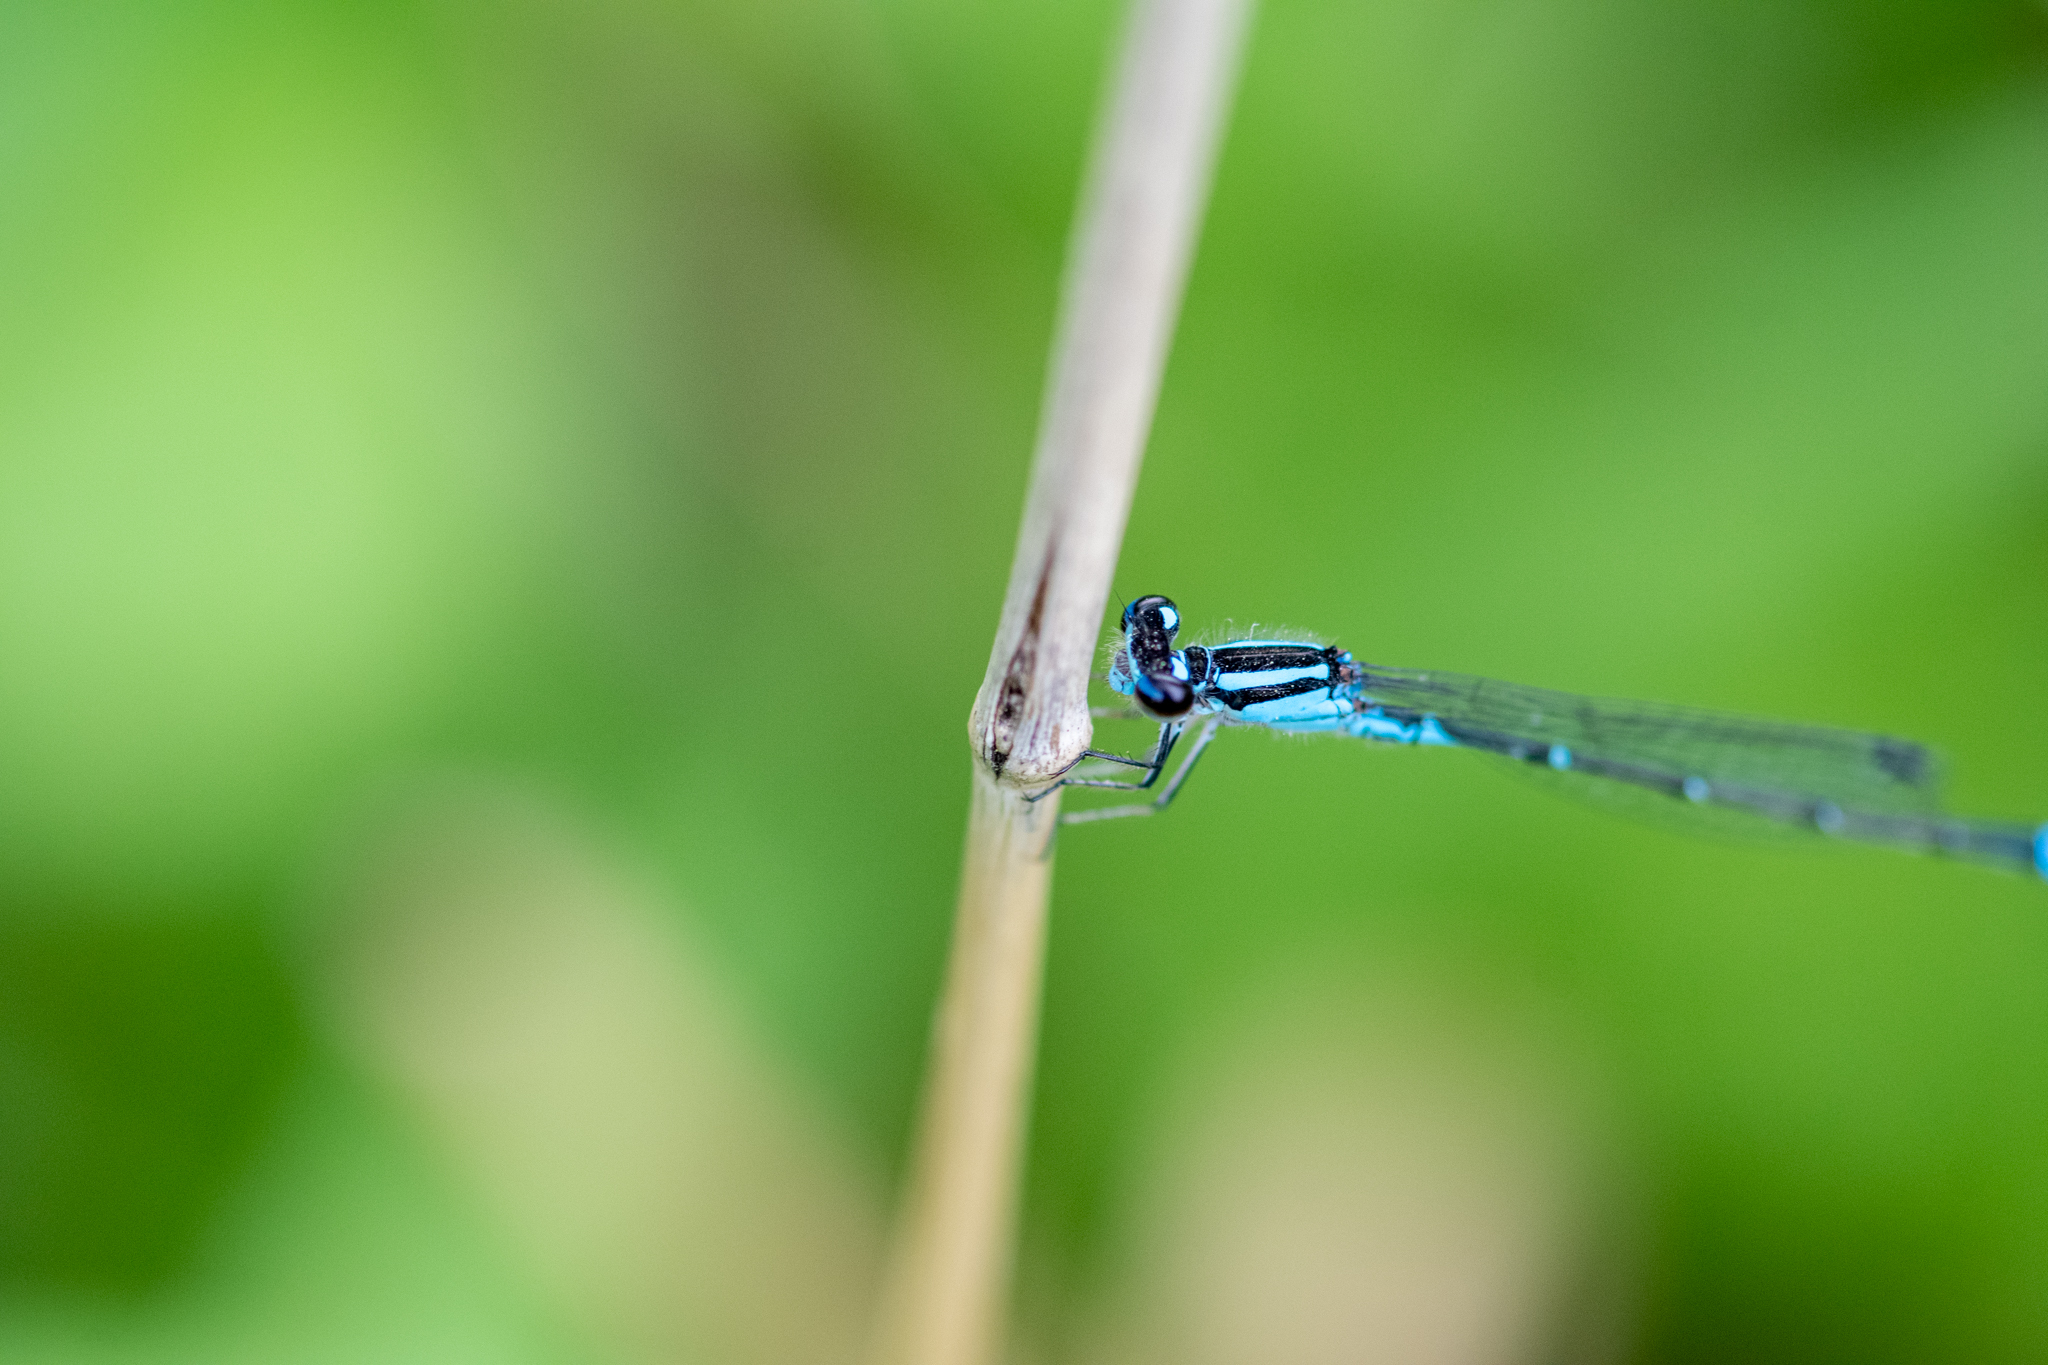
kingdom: Animalia
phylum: Arthropoda
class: Insecta
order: Odonata
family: Coenagrionidae
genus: Enallagma
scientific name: Enallagma geminatum
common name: Skimming bluet
